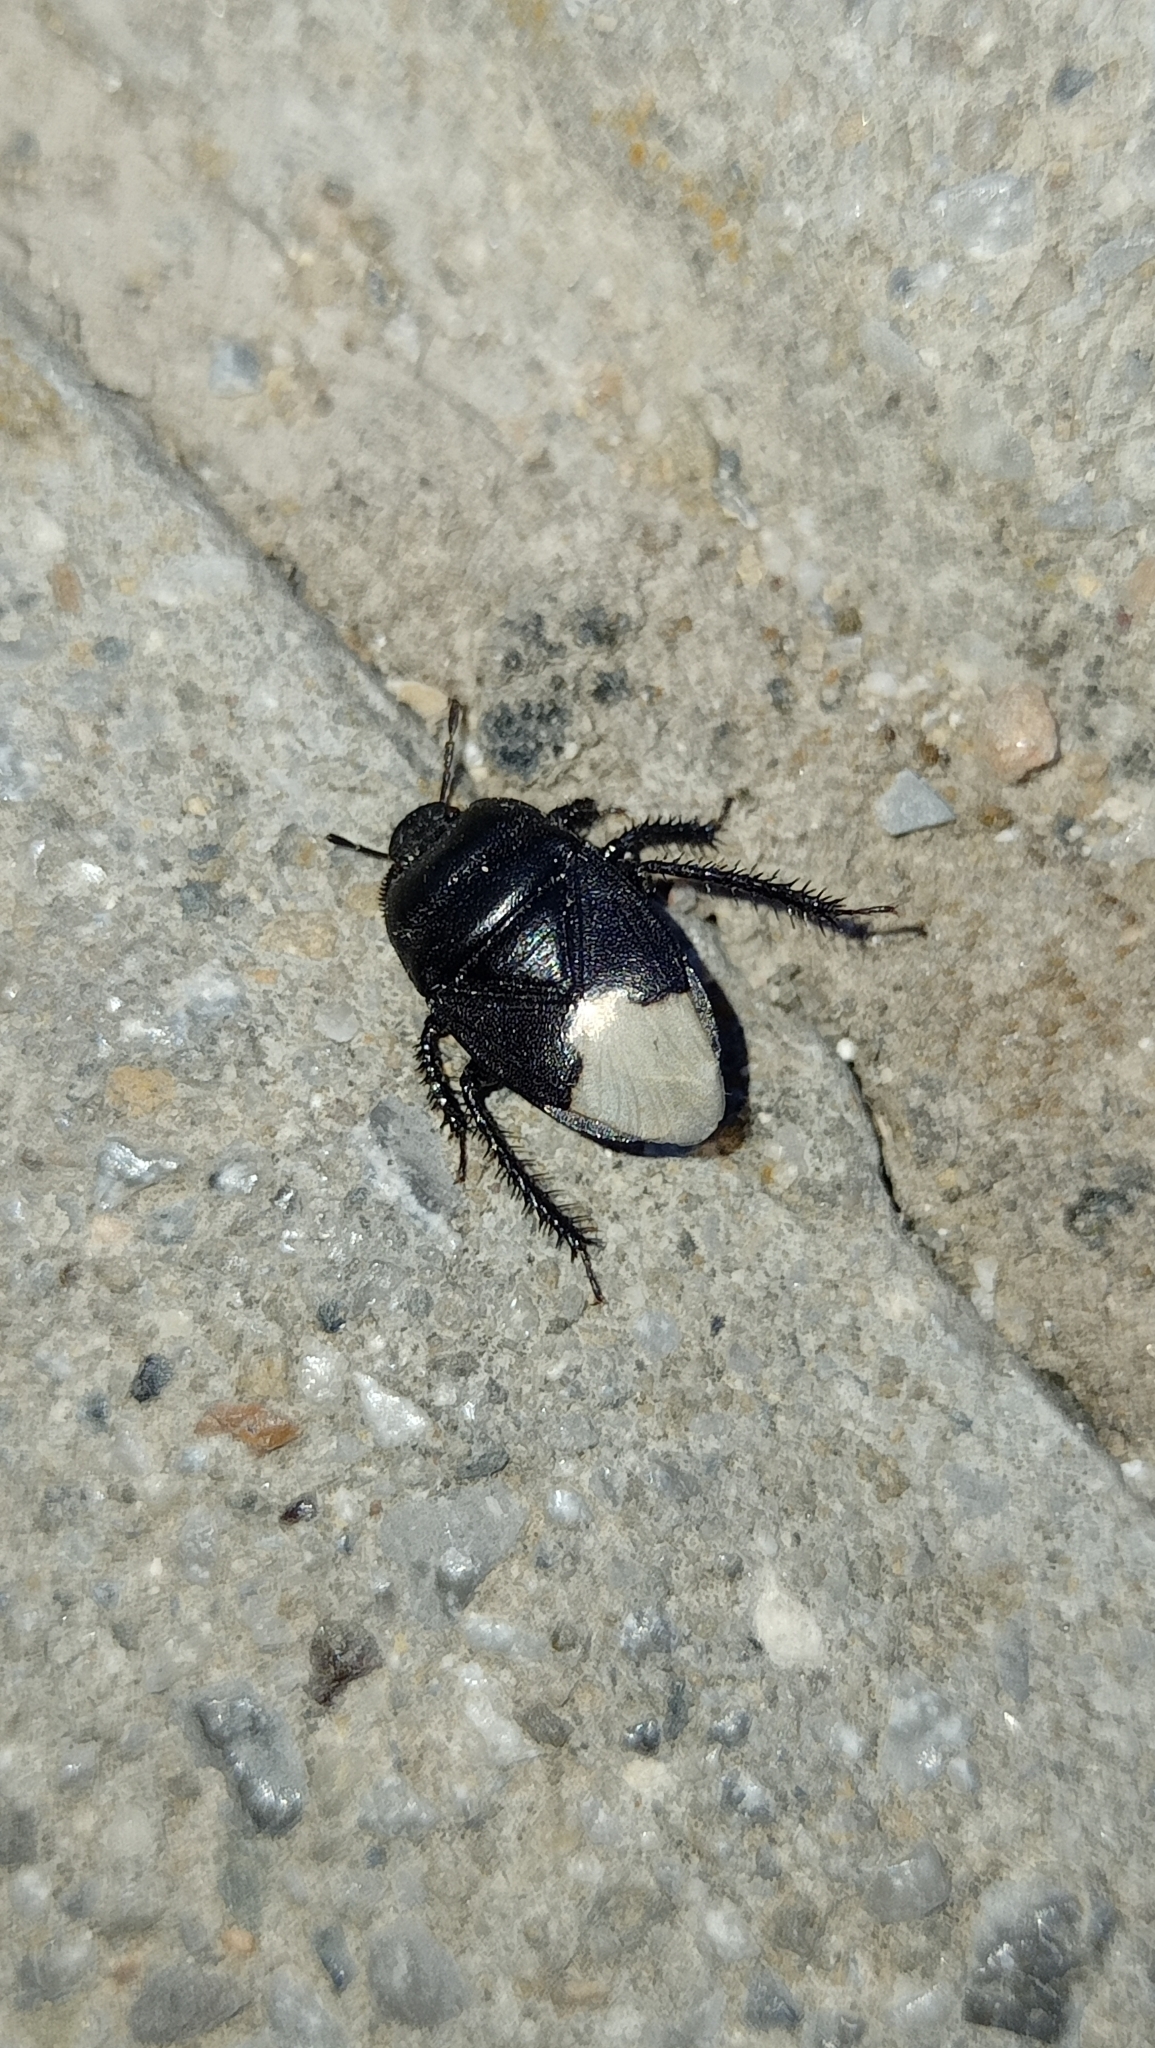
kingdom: Animalia
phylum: Arthropoda
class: Insecta
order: Hemiptera
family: Cydnidae
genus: Cydnus
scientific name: Cydnus aterrimus
